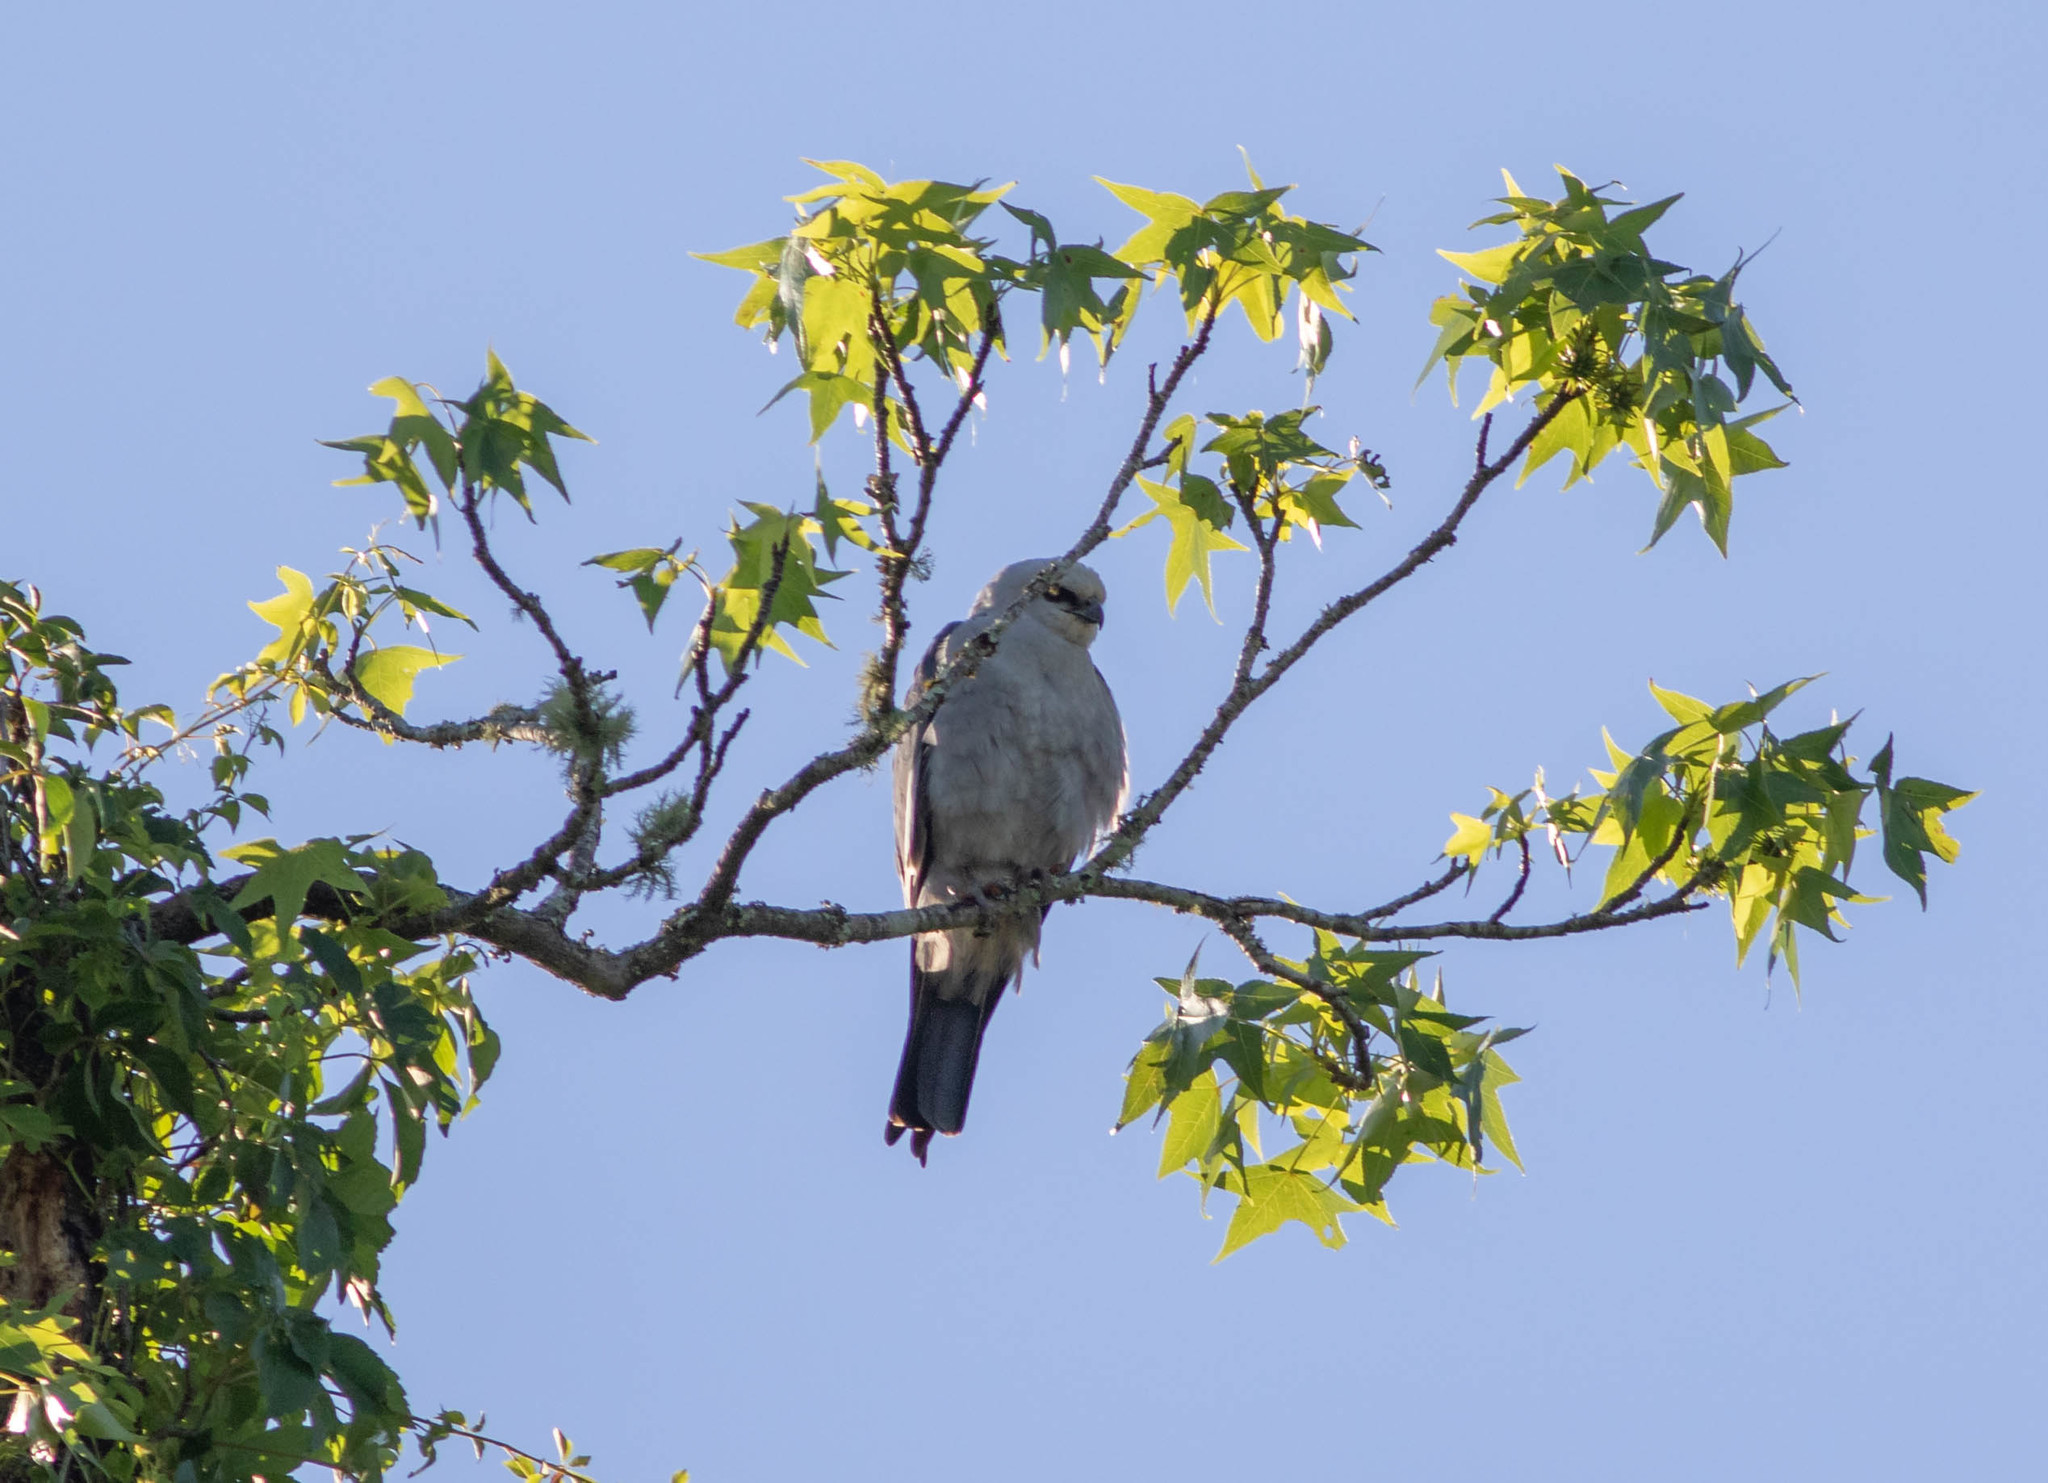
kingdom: Animalia
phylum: Chordata
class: Aves
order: Accipitriformes
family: Accipitridae
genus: Ictinia
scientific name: Ictinia mississippiensis
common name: Mississippi kite
